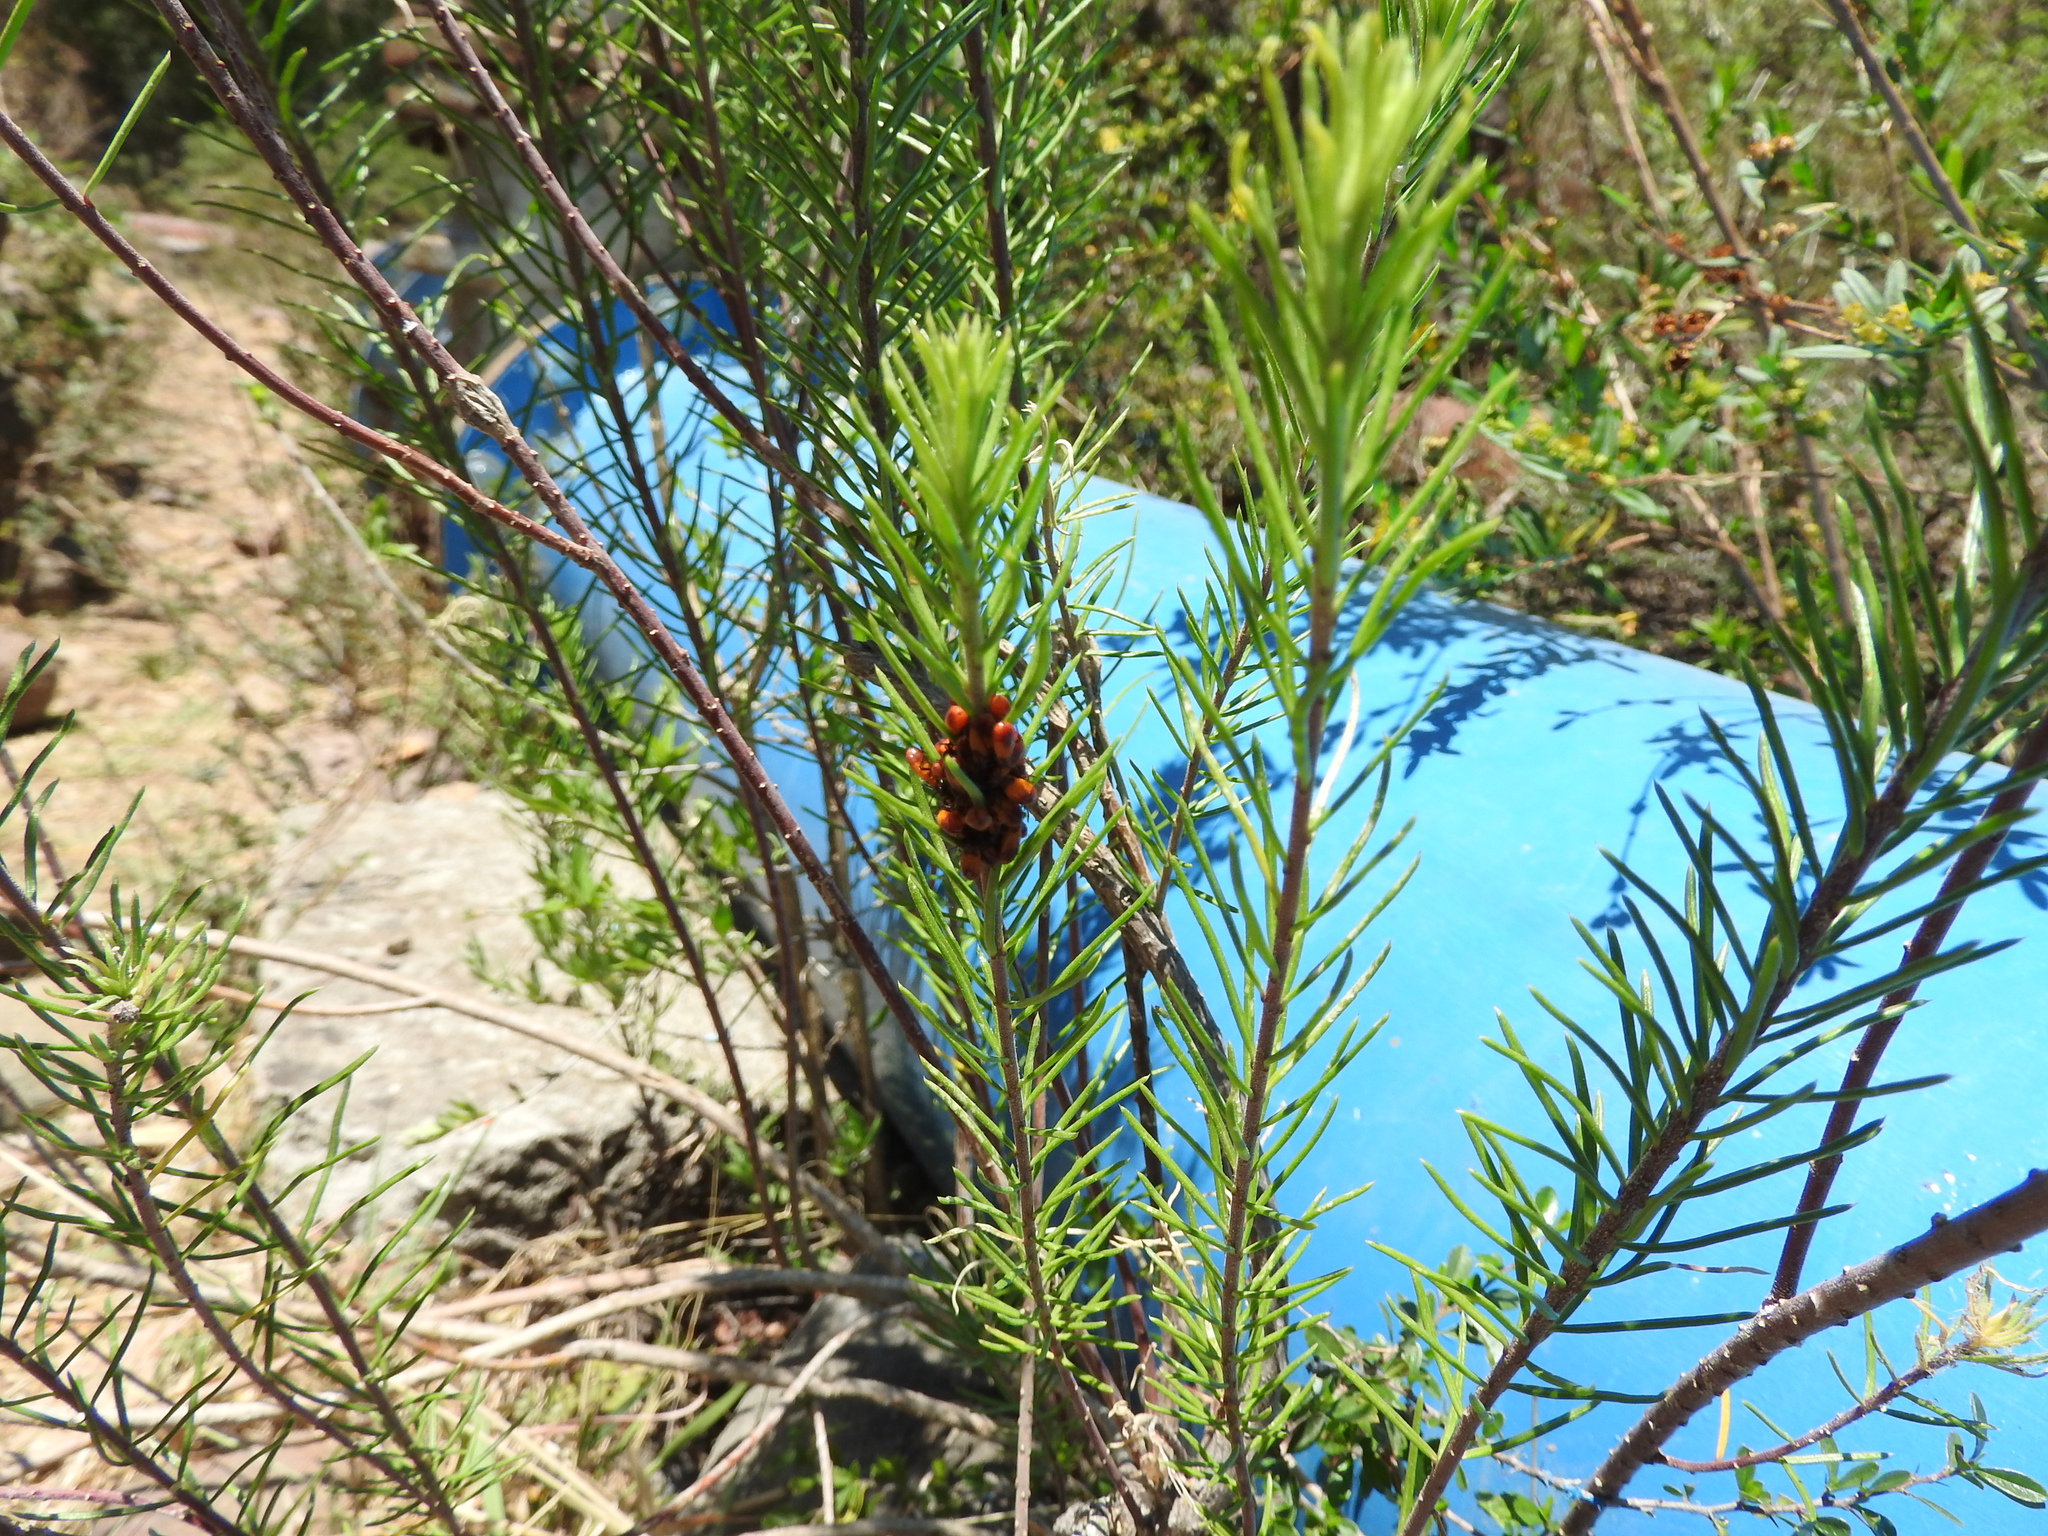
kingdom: Plantae
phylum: Tracheophyta
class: Magnoliopsida
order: Gentianales
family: Apocynaceae
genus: Asclepias
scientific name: Asclepias linaria
